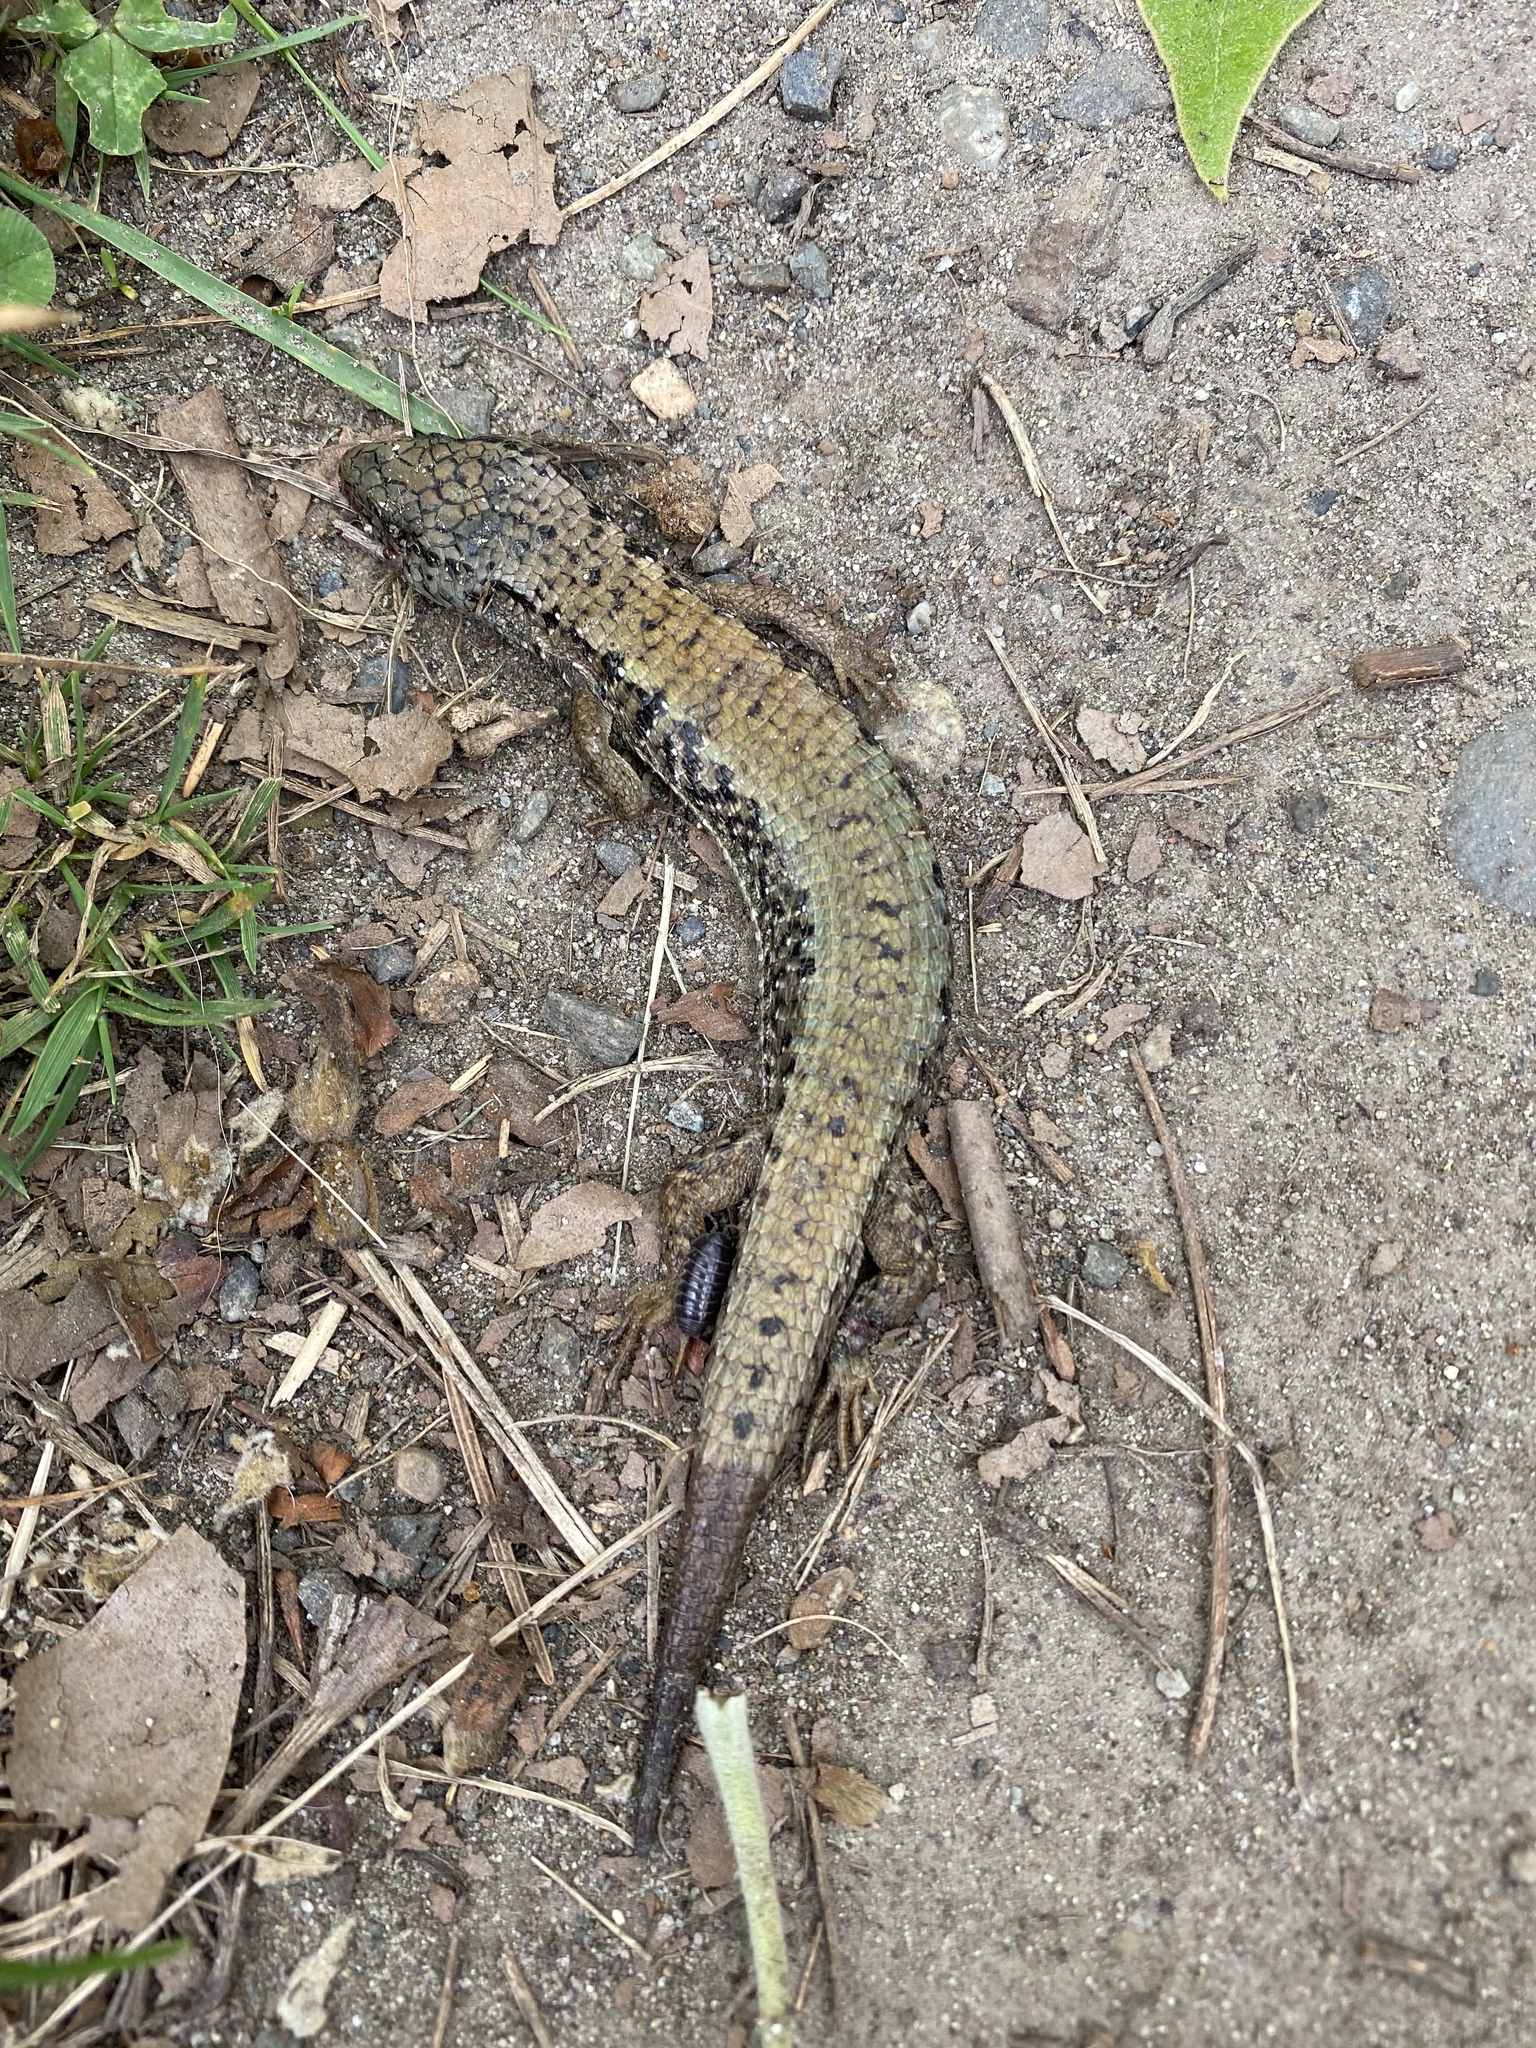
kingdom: Animalia
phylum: Chordata
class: Squamata
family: Anguidae
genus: Elgaria
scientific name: Elgaria coerulea
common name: Northern alligator lizard
